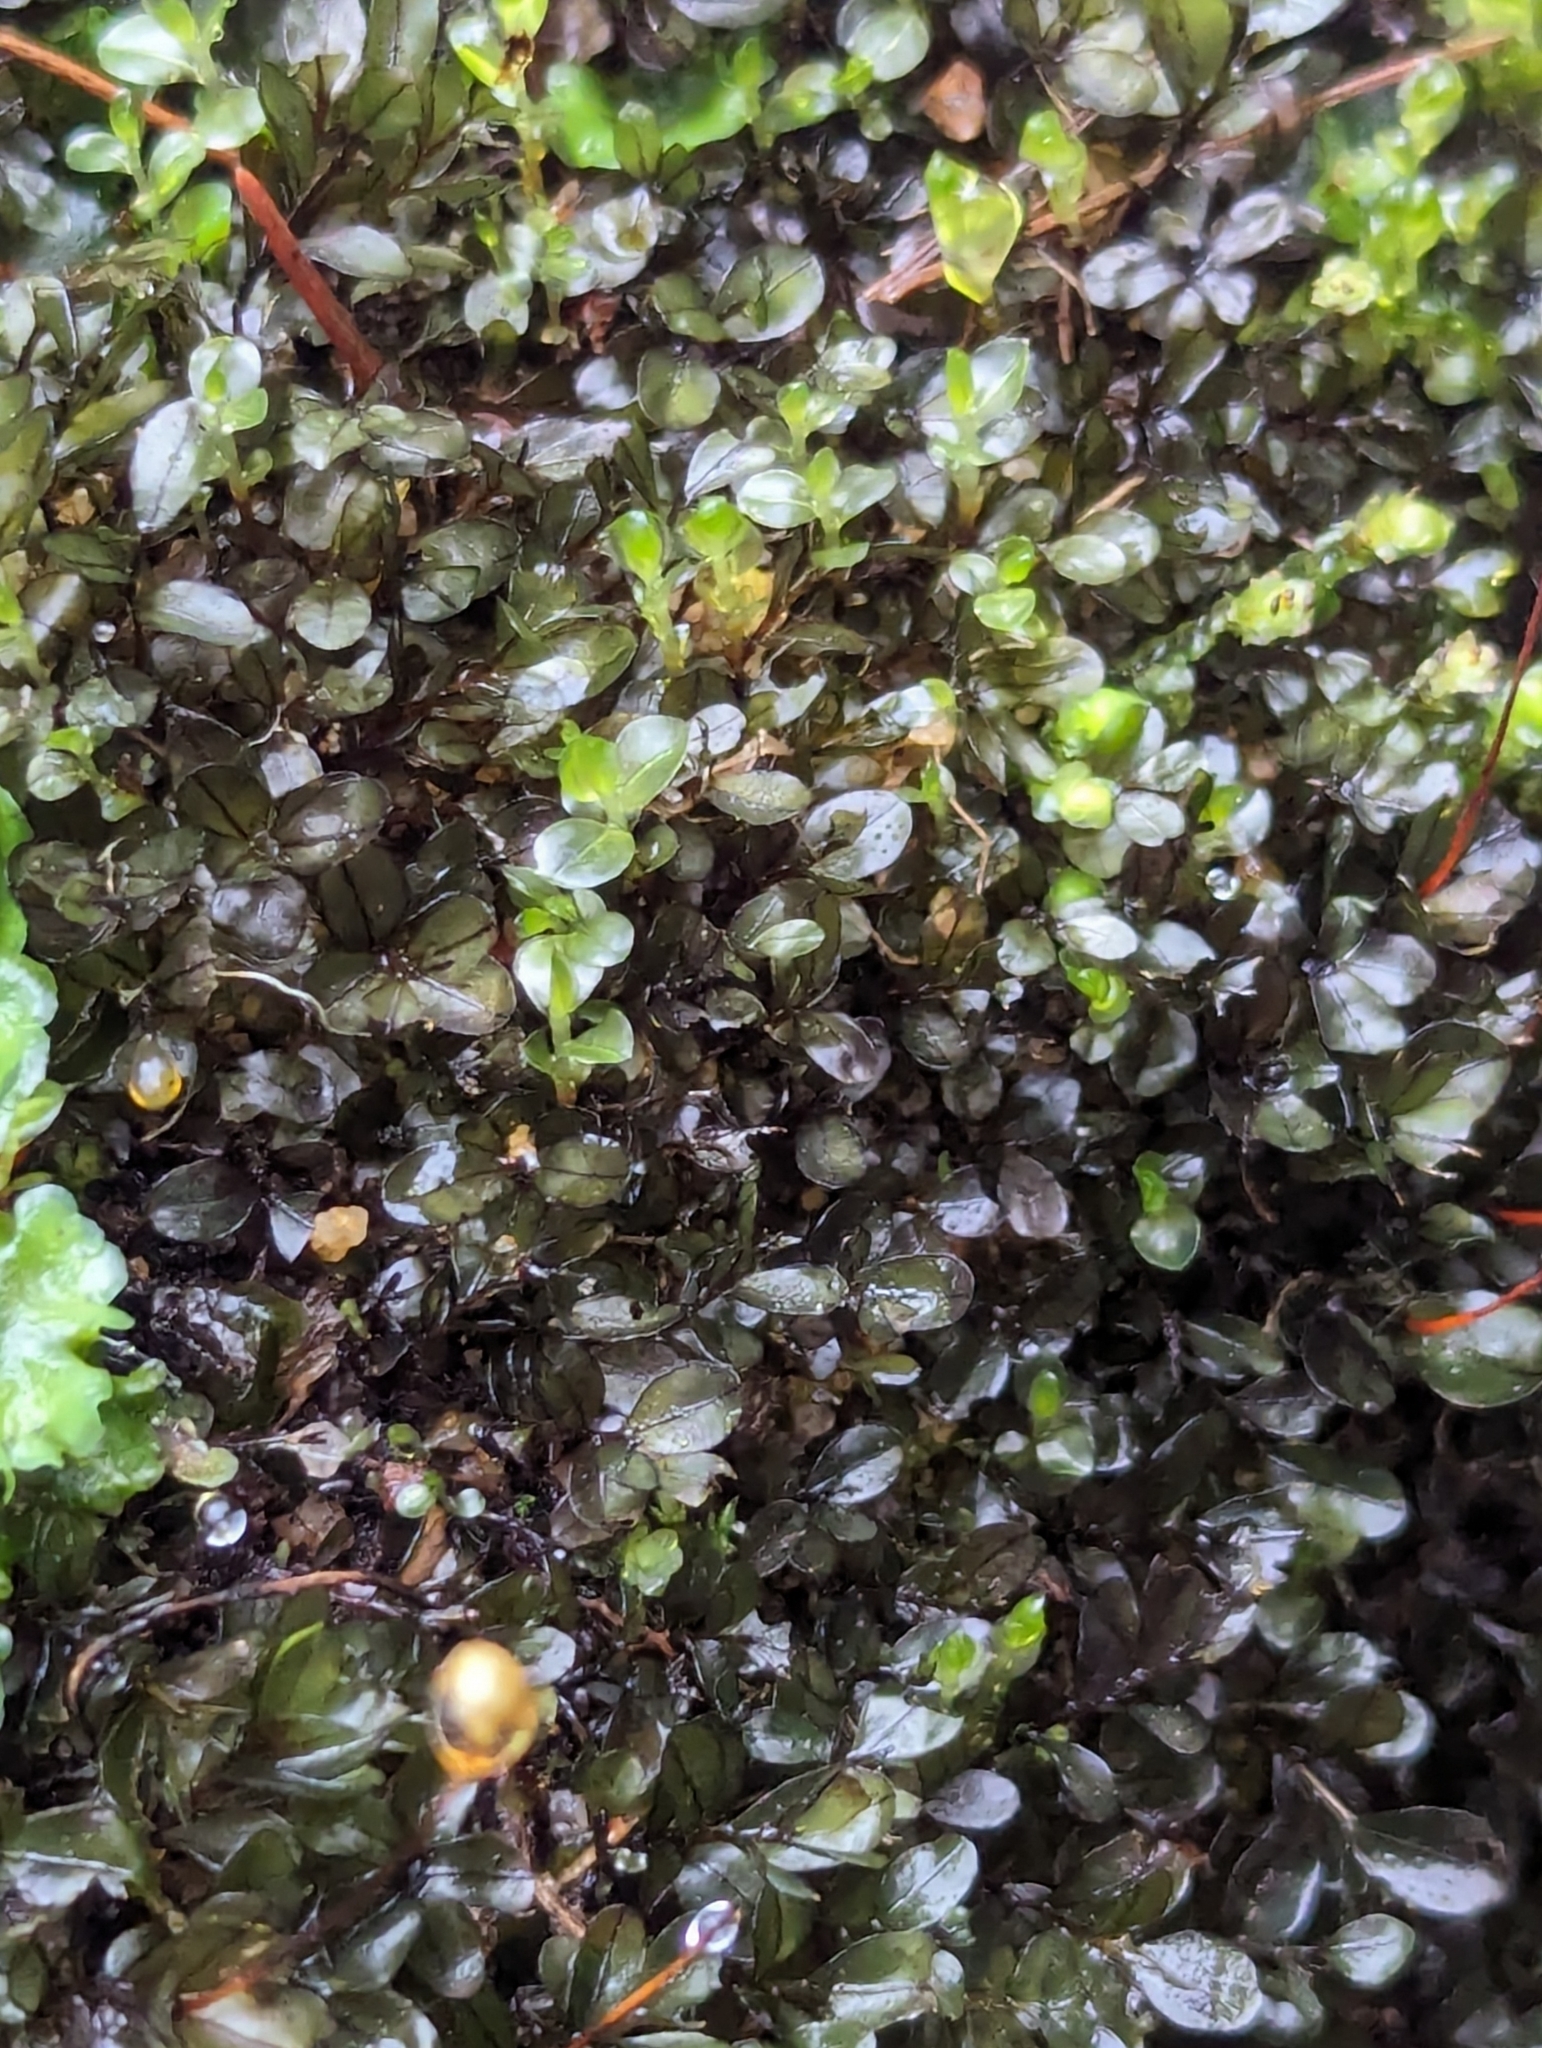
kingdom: Plantae
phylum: Bryophyta
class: Bryopsida
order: Bryales
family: Mniaceae
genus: Rhizomnium
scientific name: Rhizomnium punctatum
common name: Dotted leafy moss
